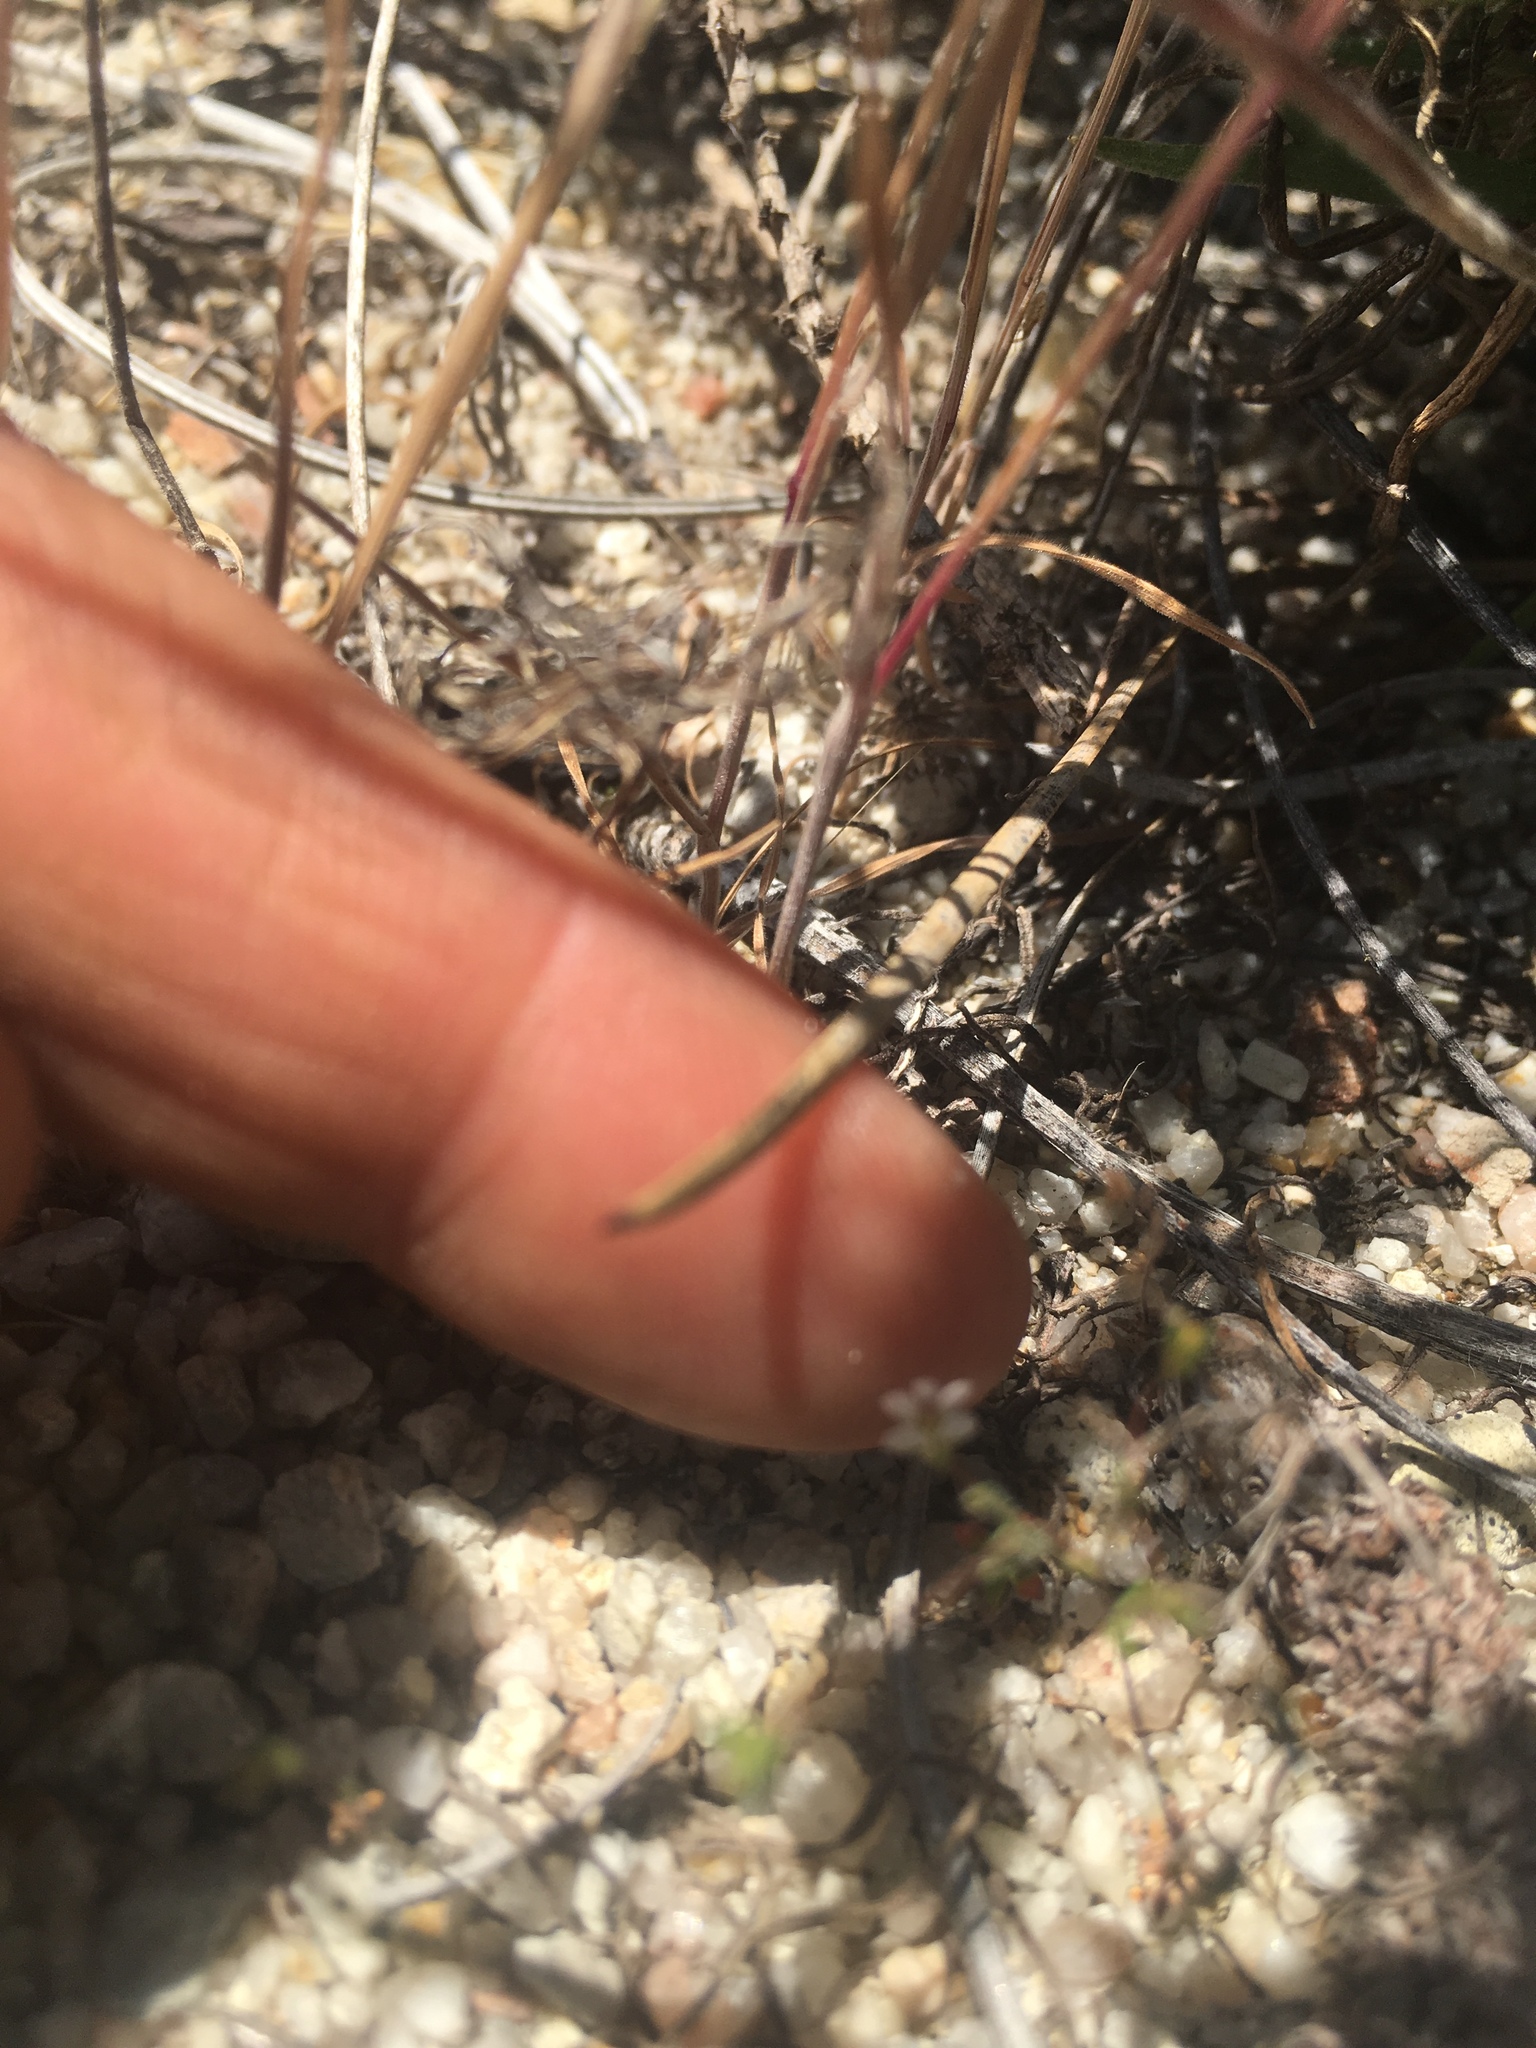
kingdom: Plantae
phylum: Tracheophyta
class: Magnoliopsida
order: Asterales
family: Campanulaceae
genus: Nemacladus
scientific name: Nemacladus secundiflorus
